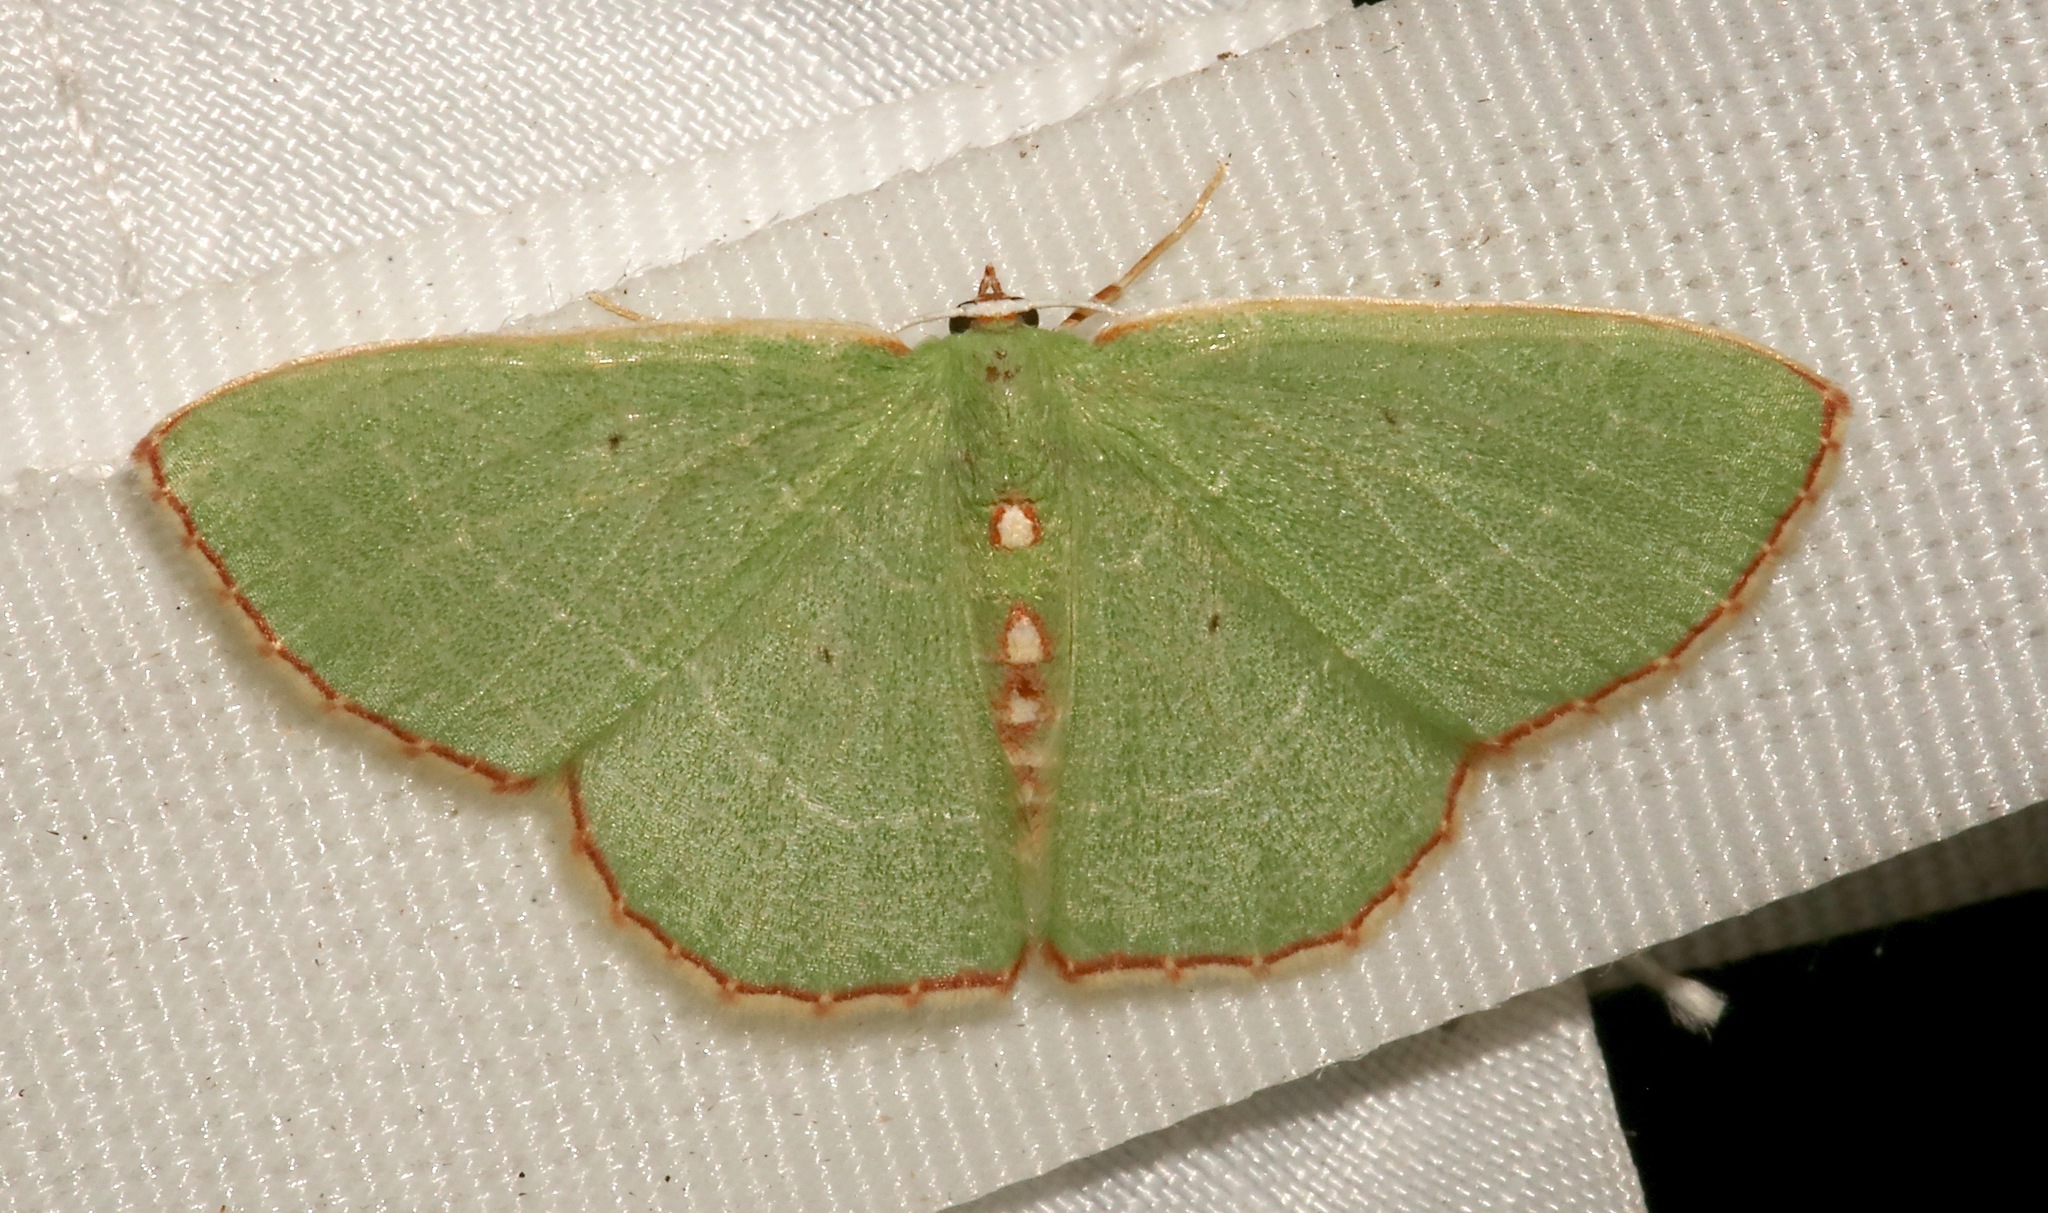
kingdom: Animalia
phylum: Arthropoda
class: Insecta
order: Lepidoptera
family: Geometridae
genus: Nemoria
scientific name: Nemoria lixaria
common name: Red-bordered emerald
